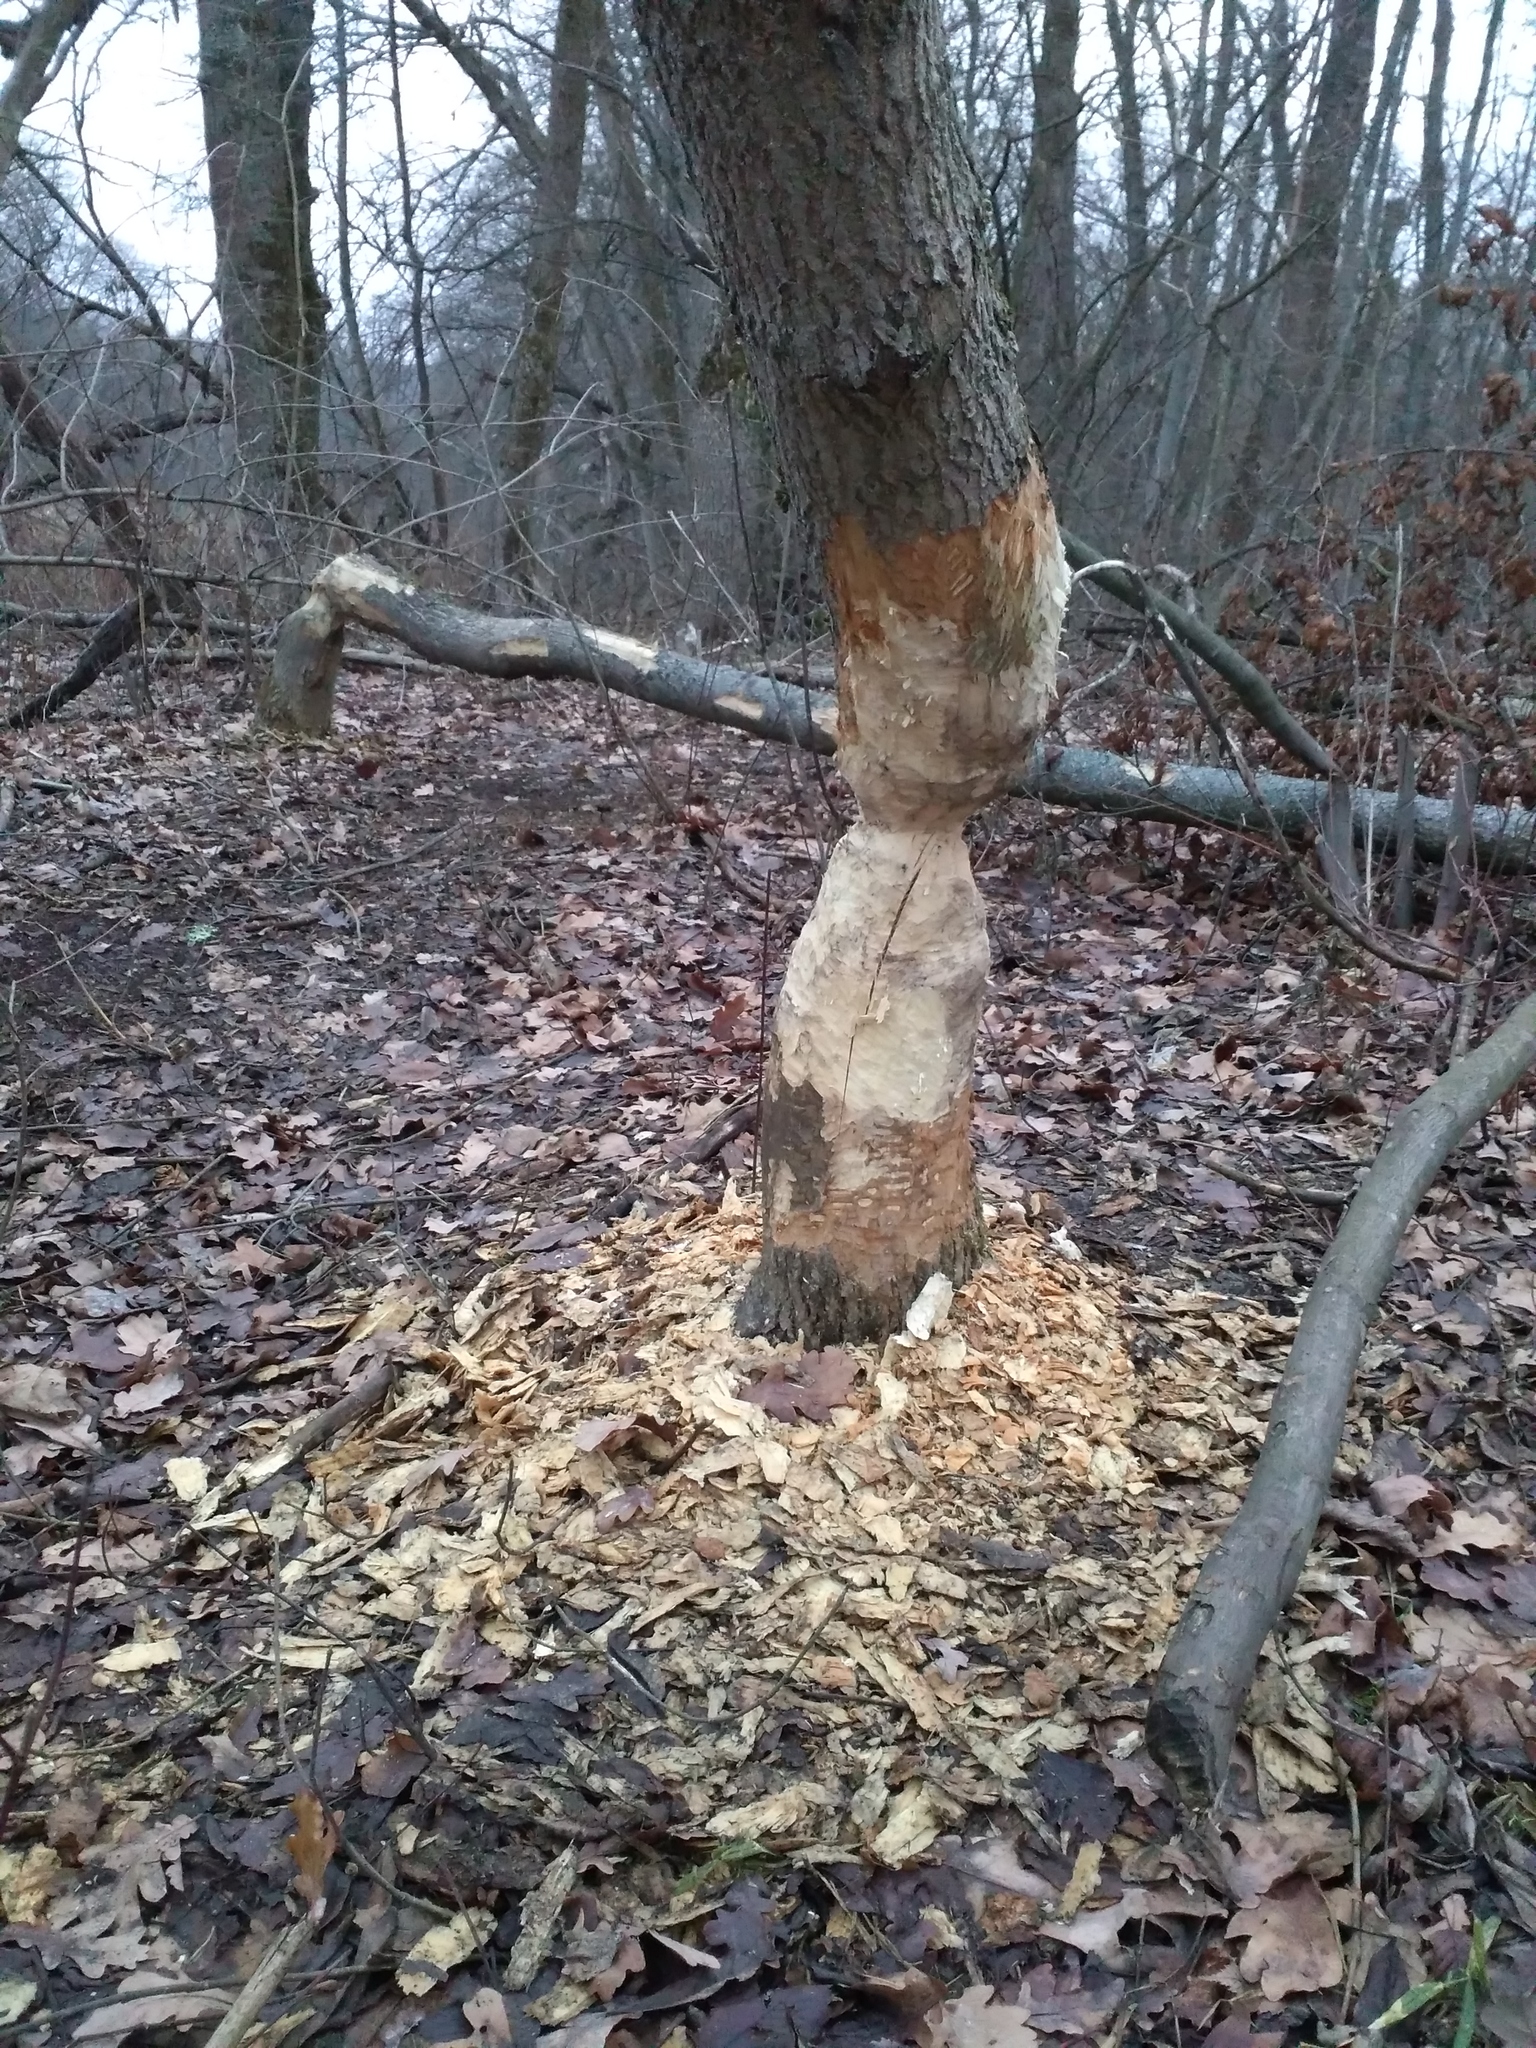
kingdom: Animalia
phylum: Chordata
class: Mammalia
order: Rodentia
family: Castoridae
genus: Castor
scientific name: Castor fiber
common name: Eurasian beaver
